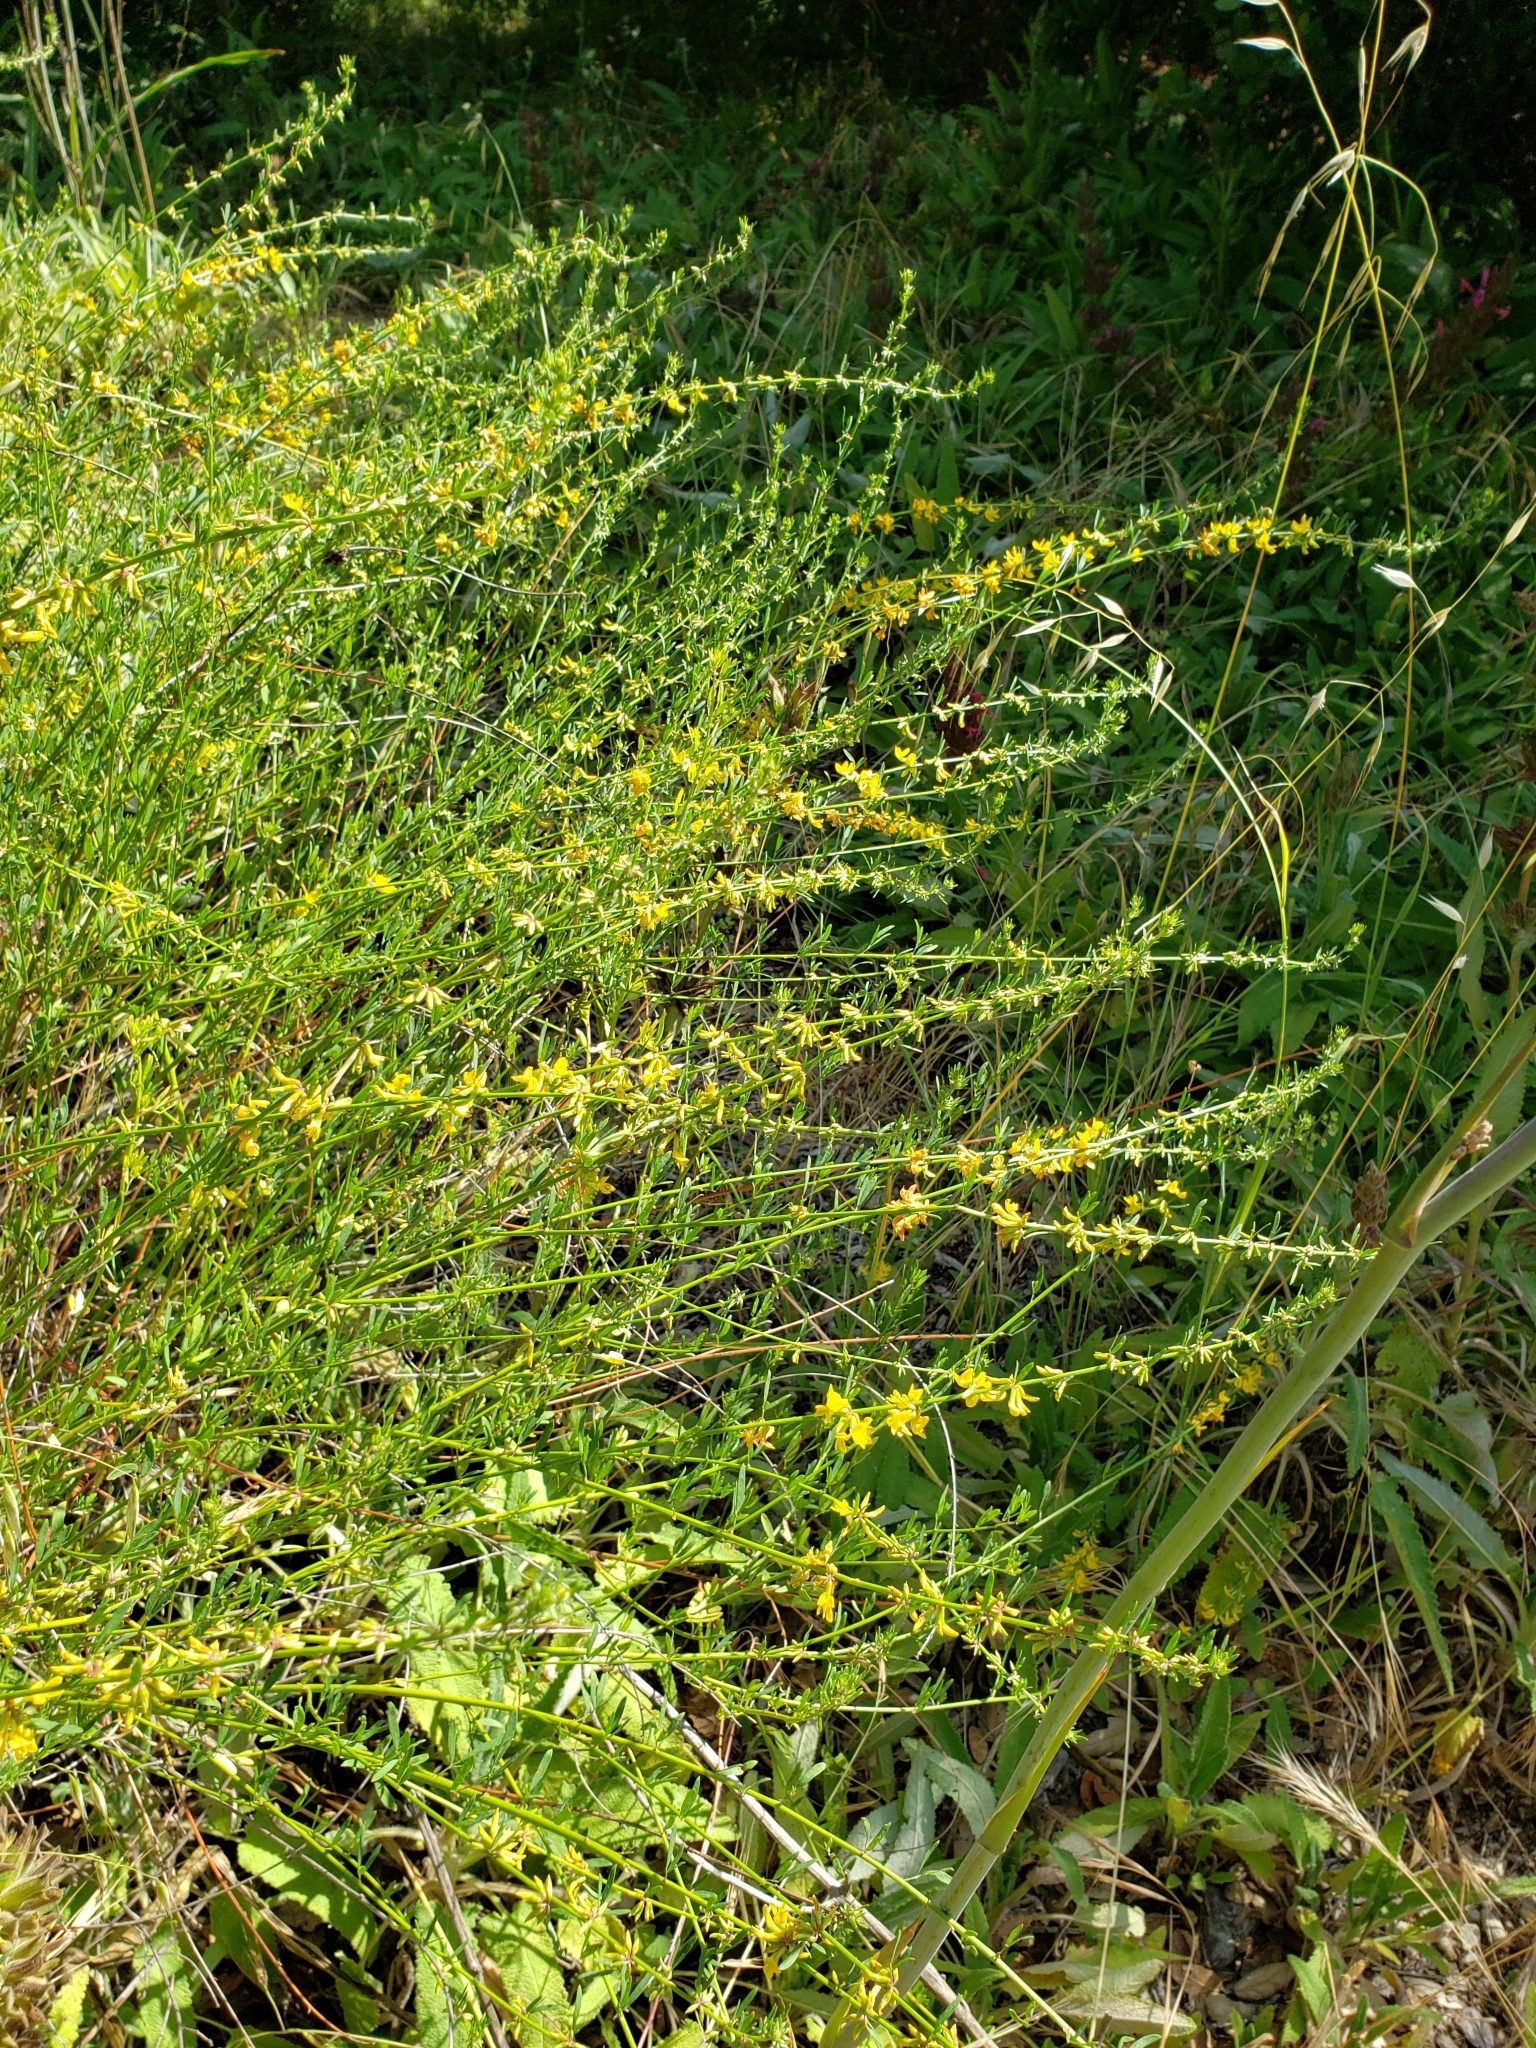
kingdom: Plantae
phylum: Tracheophyta
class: Magnoliopsida
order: Fabales
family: Fabaceae
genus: Acmispon
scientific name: Acmispon glaber
